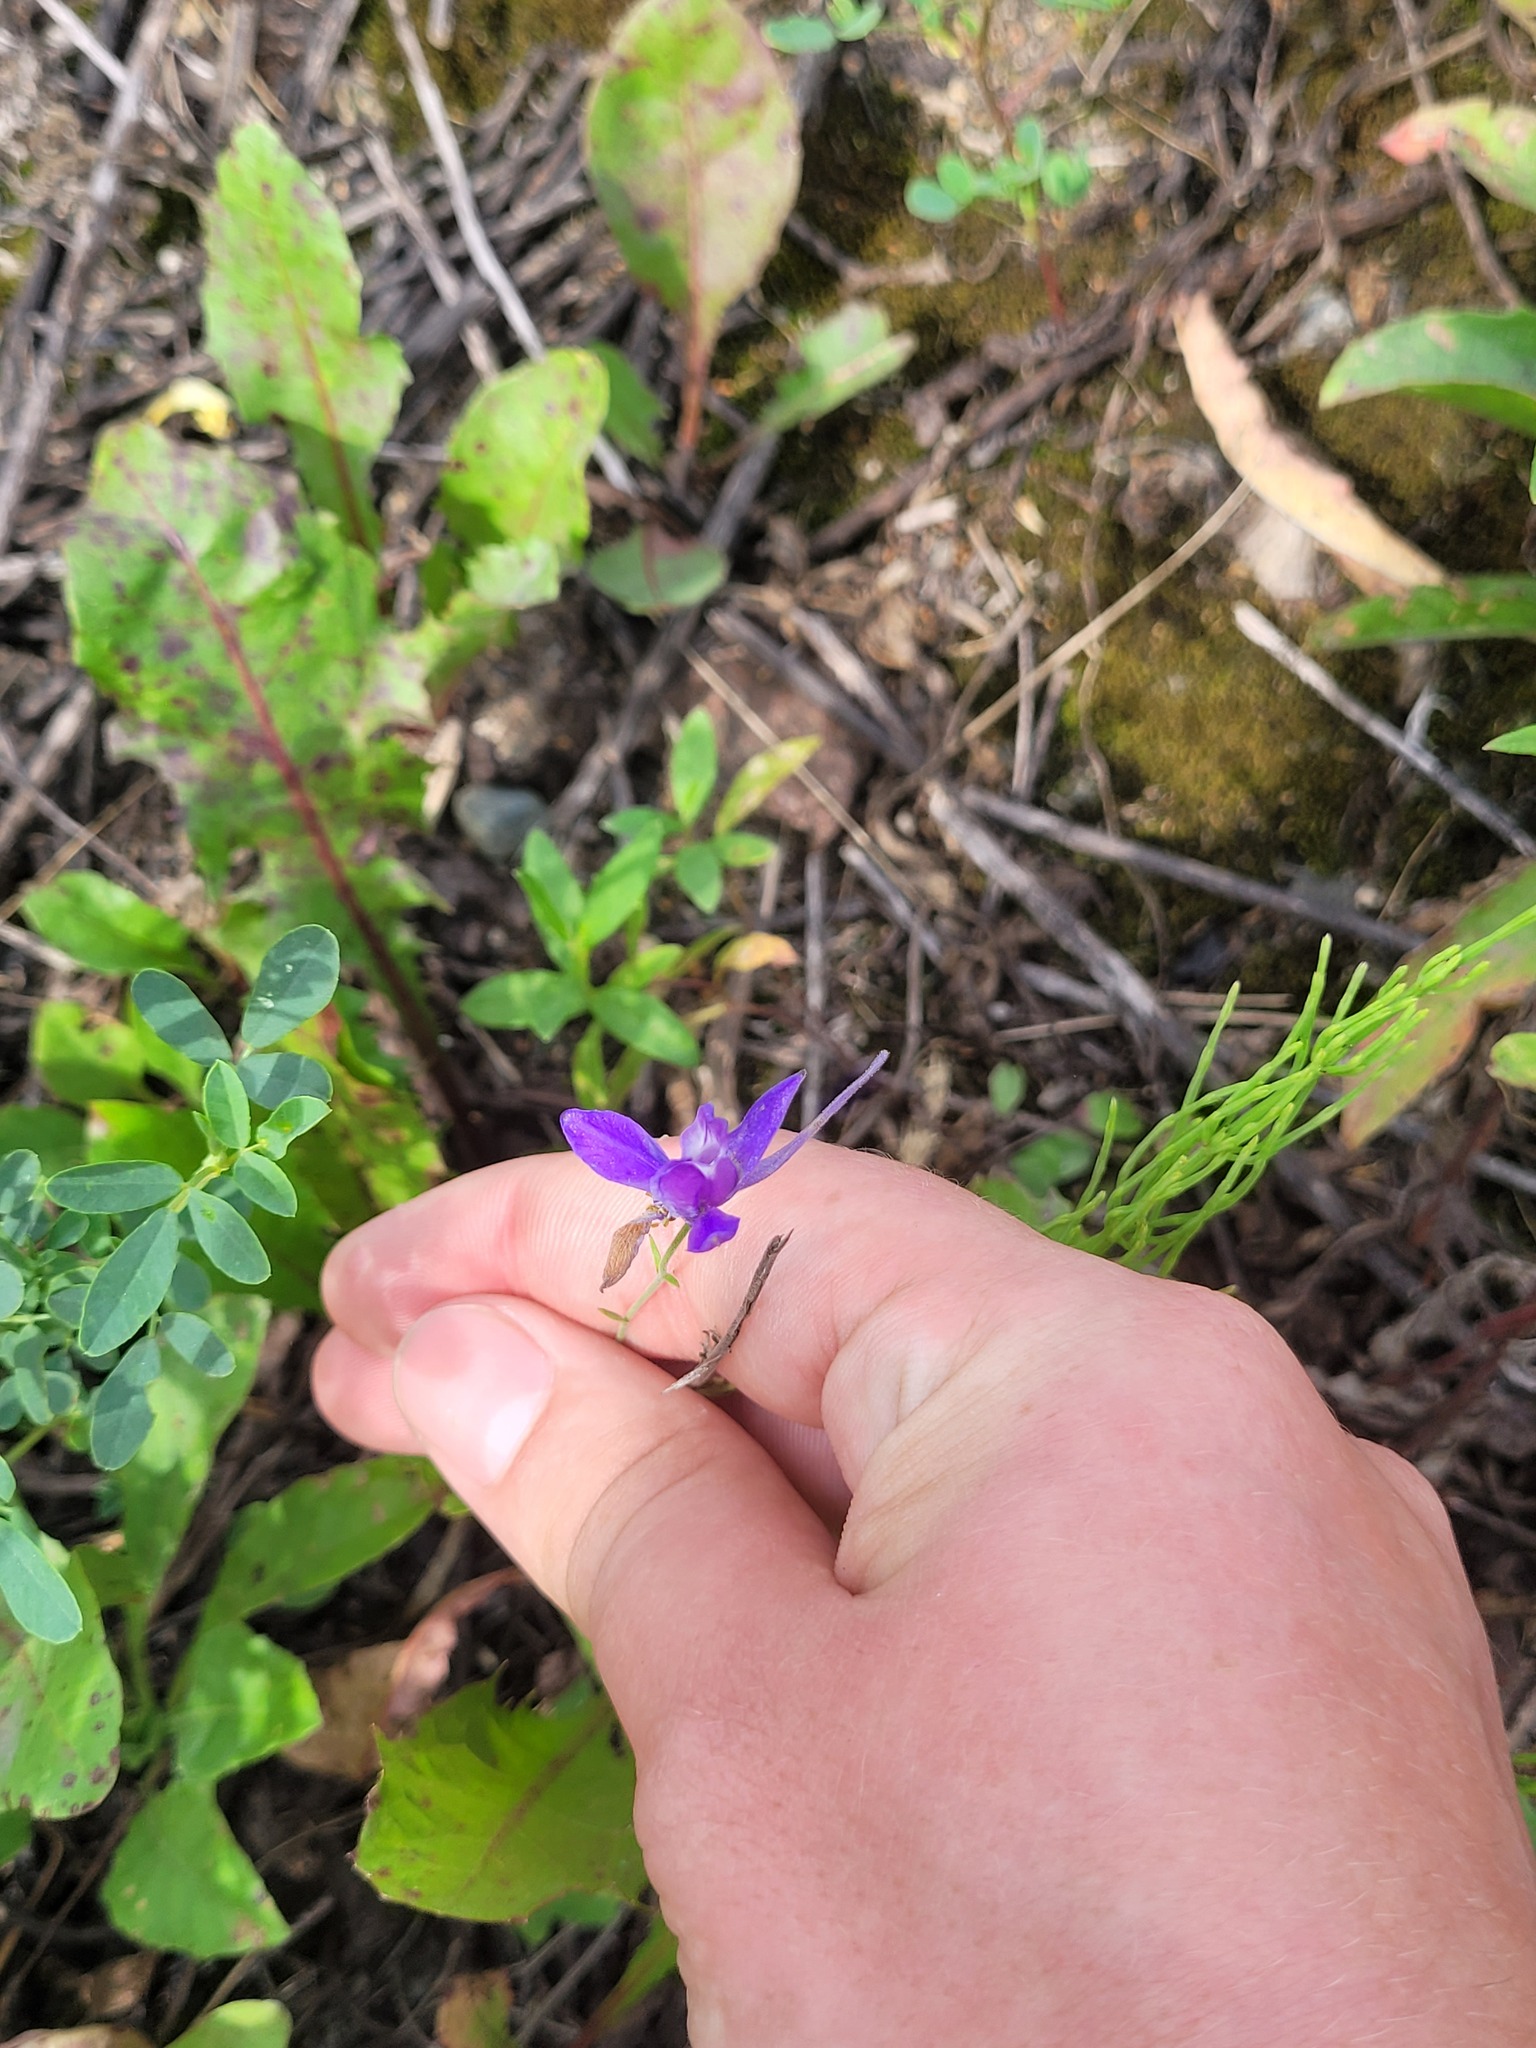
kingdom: Plantae
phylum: Tracheophyta
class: Magnoliopsida
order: Ranunculales
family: Ranunculaceae
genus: Delphinium
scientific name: Delphinium consolida
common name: Branching larkspur
